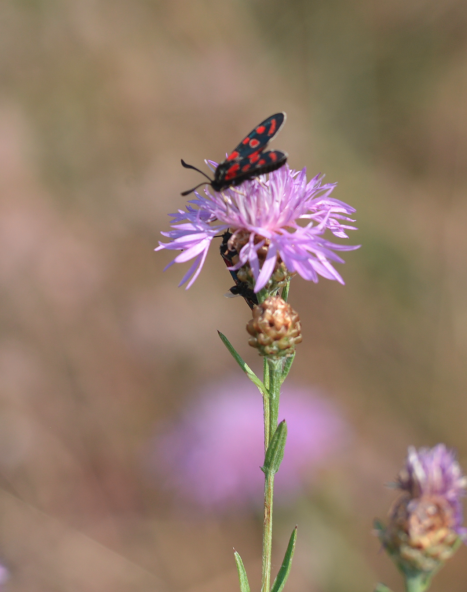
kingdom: Animalia
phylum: Arthropoda
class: Insecta
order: Lepidoptera
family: Zygaenidae
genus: Zygaena
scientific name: Zygaena carniolica
